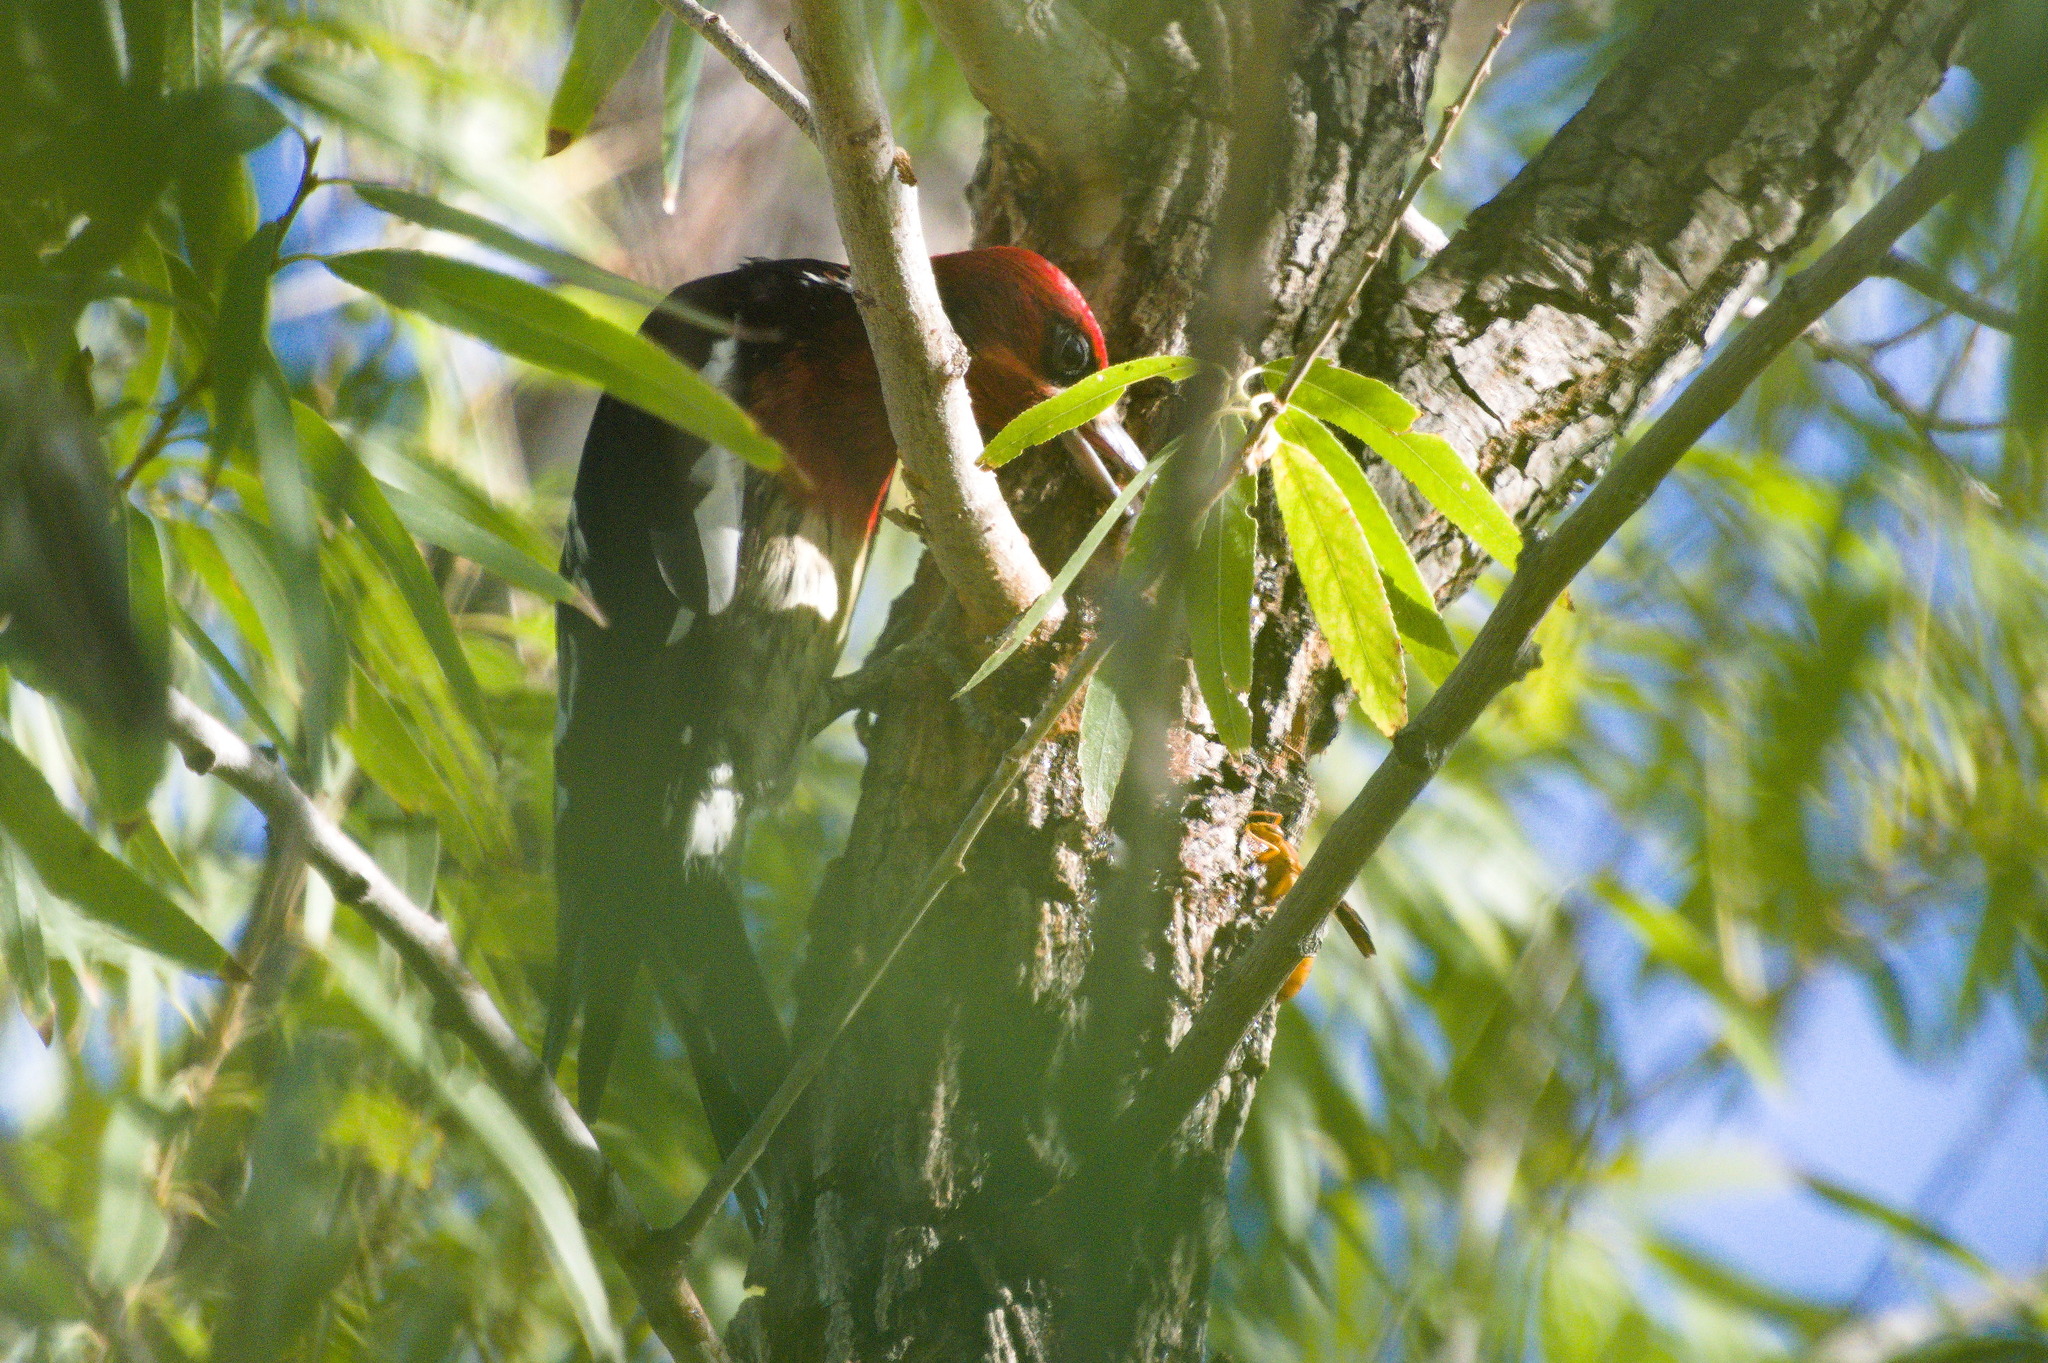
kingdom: Animalia
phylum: Chordata
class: Aves
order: Piciformes
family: Picidae
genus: Sphyrapicus
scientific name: Sphyrapicus ruber
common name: Red-breasted sapsucker
